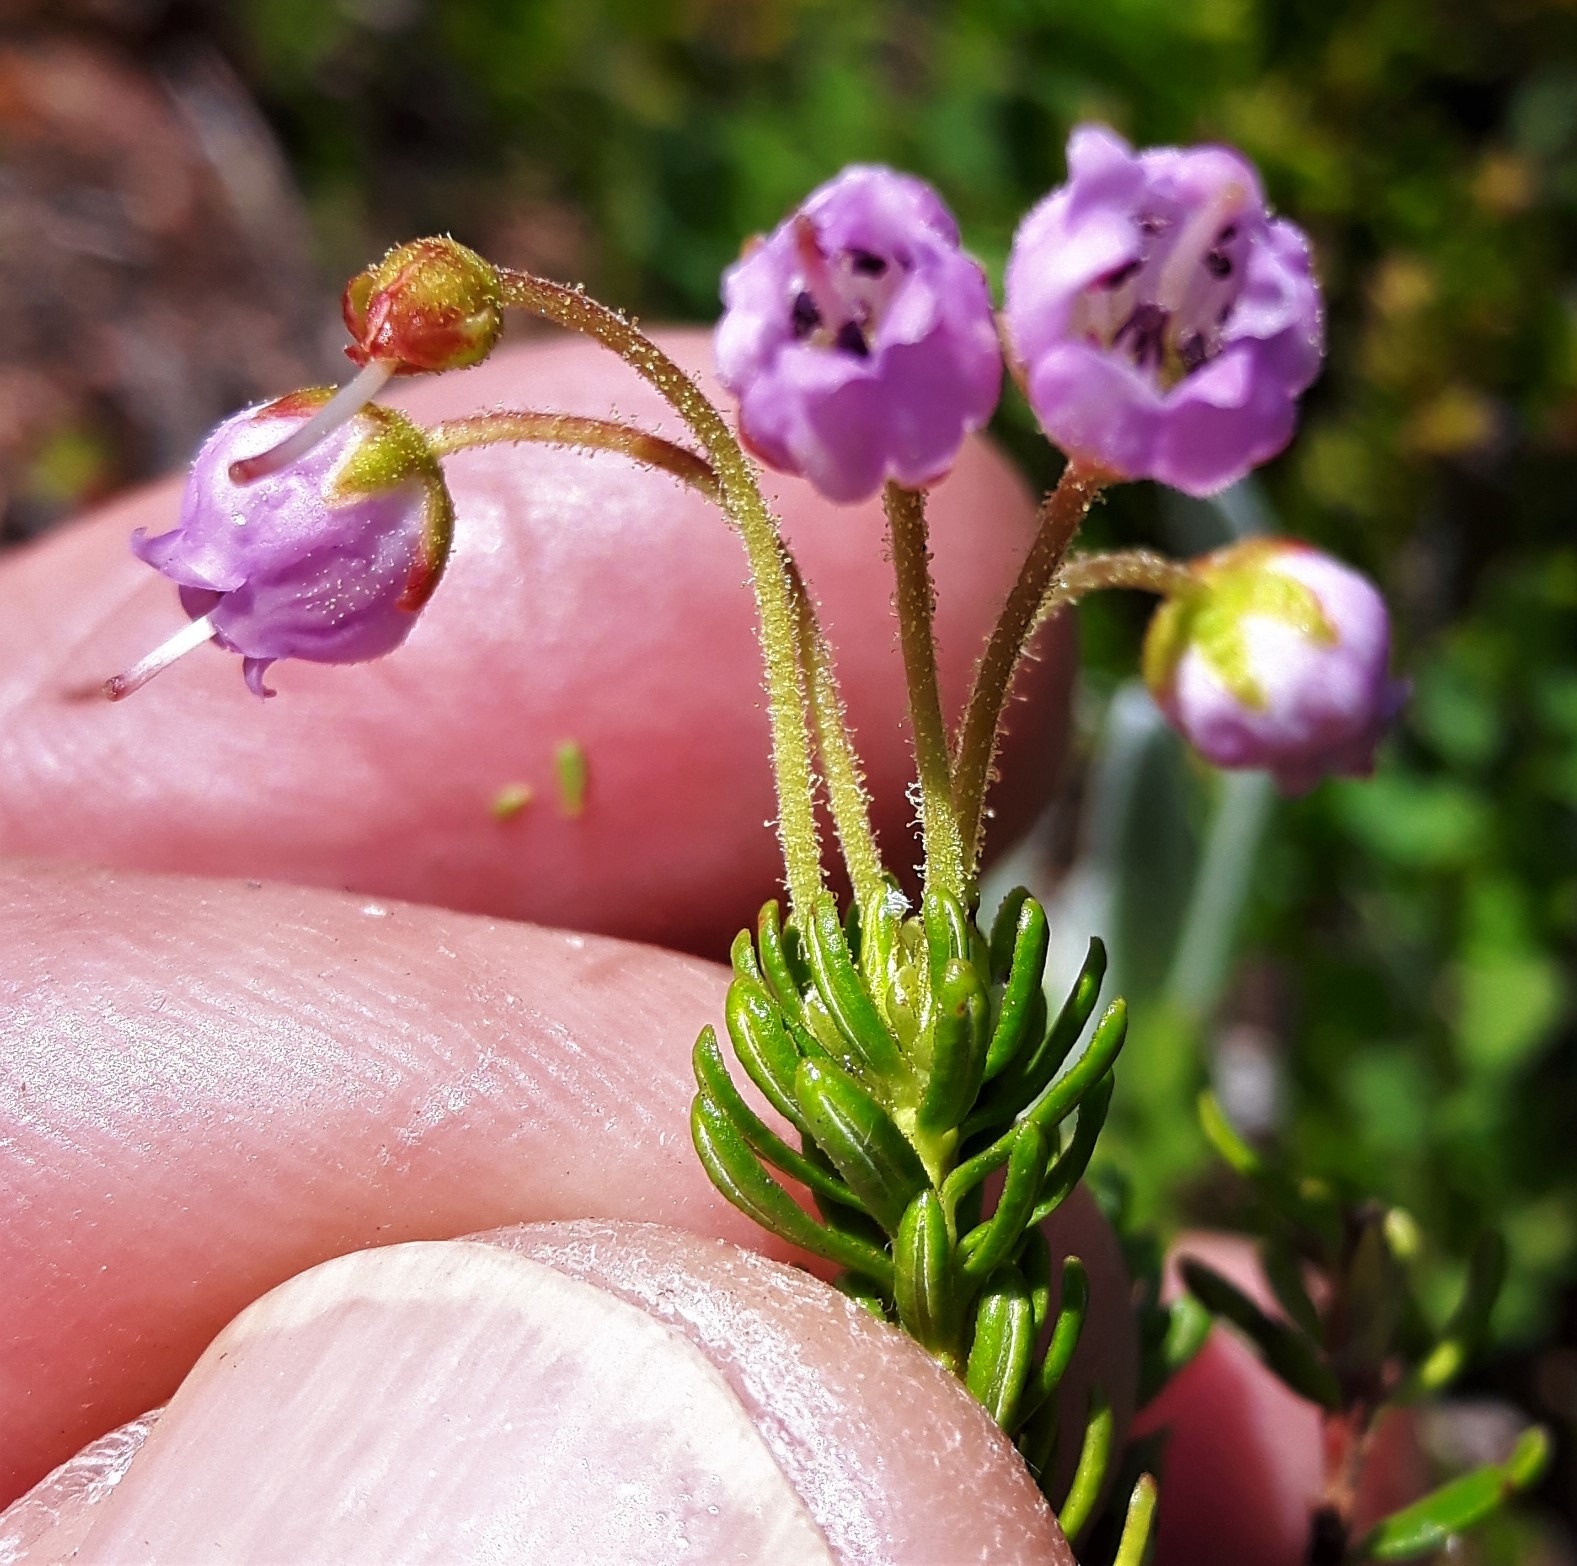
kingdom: Plantae
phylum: Tracheophyta
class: Magnoliopsida
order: Ericales
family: Ericaceae
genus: Phyllodoce
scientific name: Phyllodoce intermedia
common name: Hybrid mountain heather
